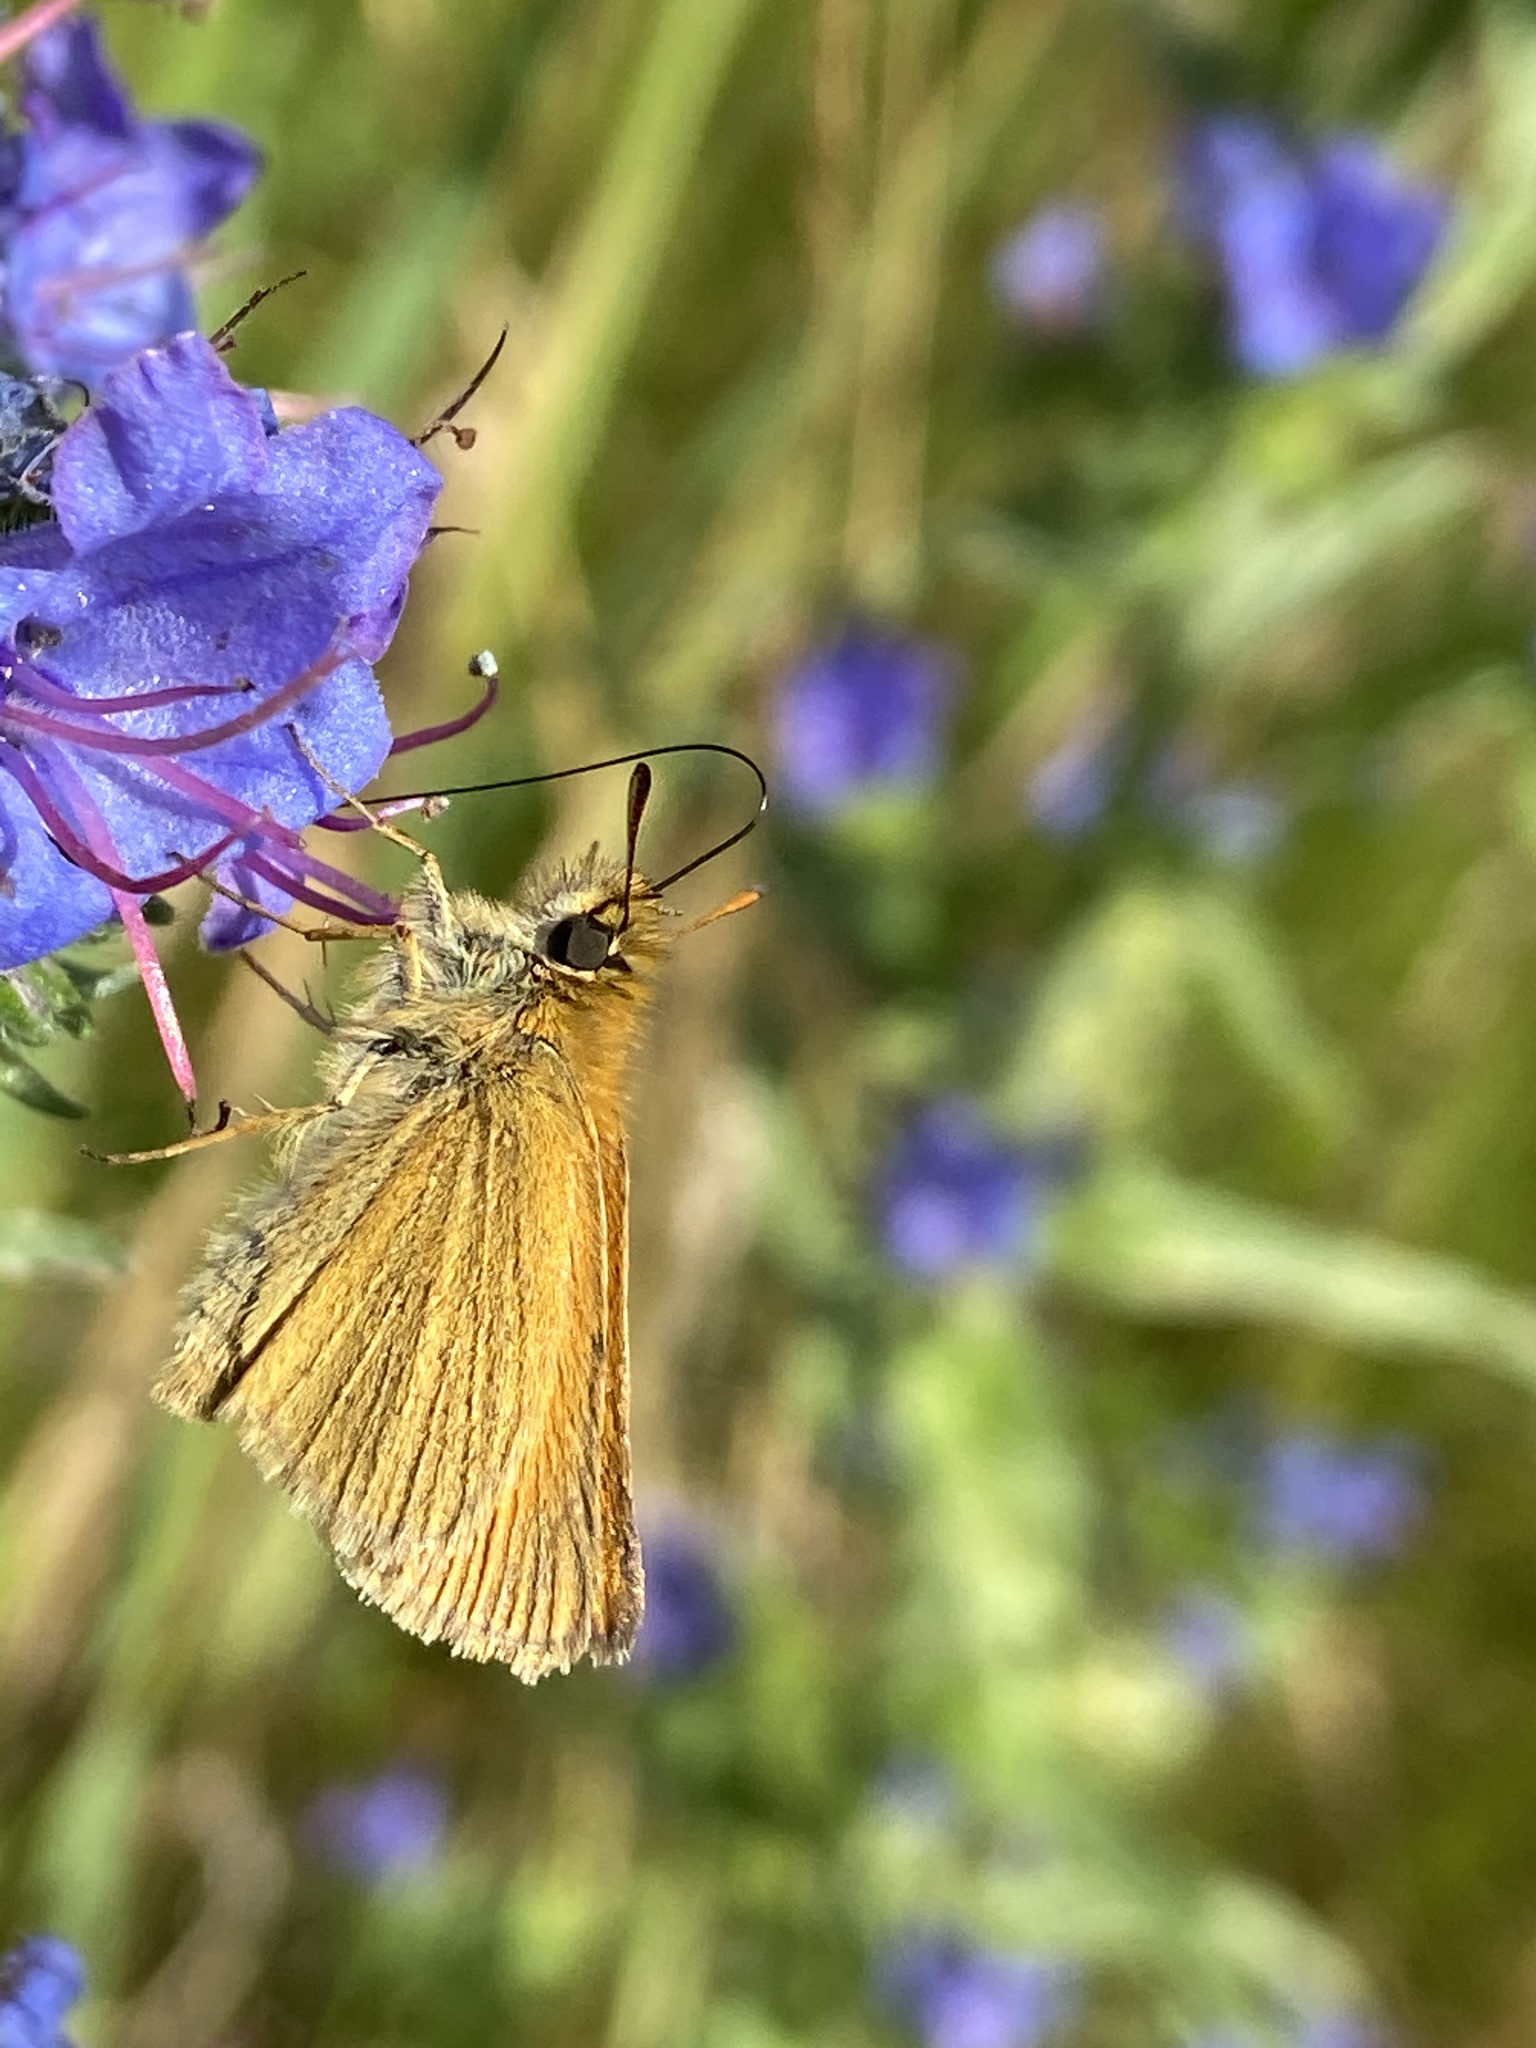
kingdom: Animalia
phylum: Arthropoda
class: Insecta
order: Lepidoptera
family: Hesperiidae
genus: Thymelicus
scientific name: Thymelicus lineola
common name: Essex skipper
